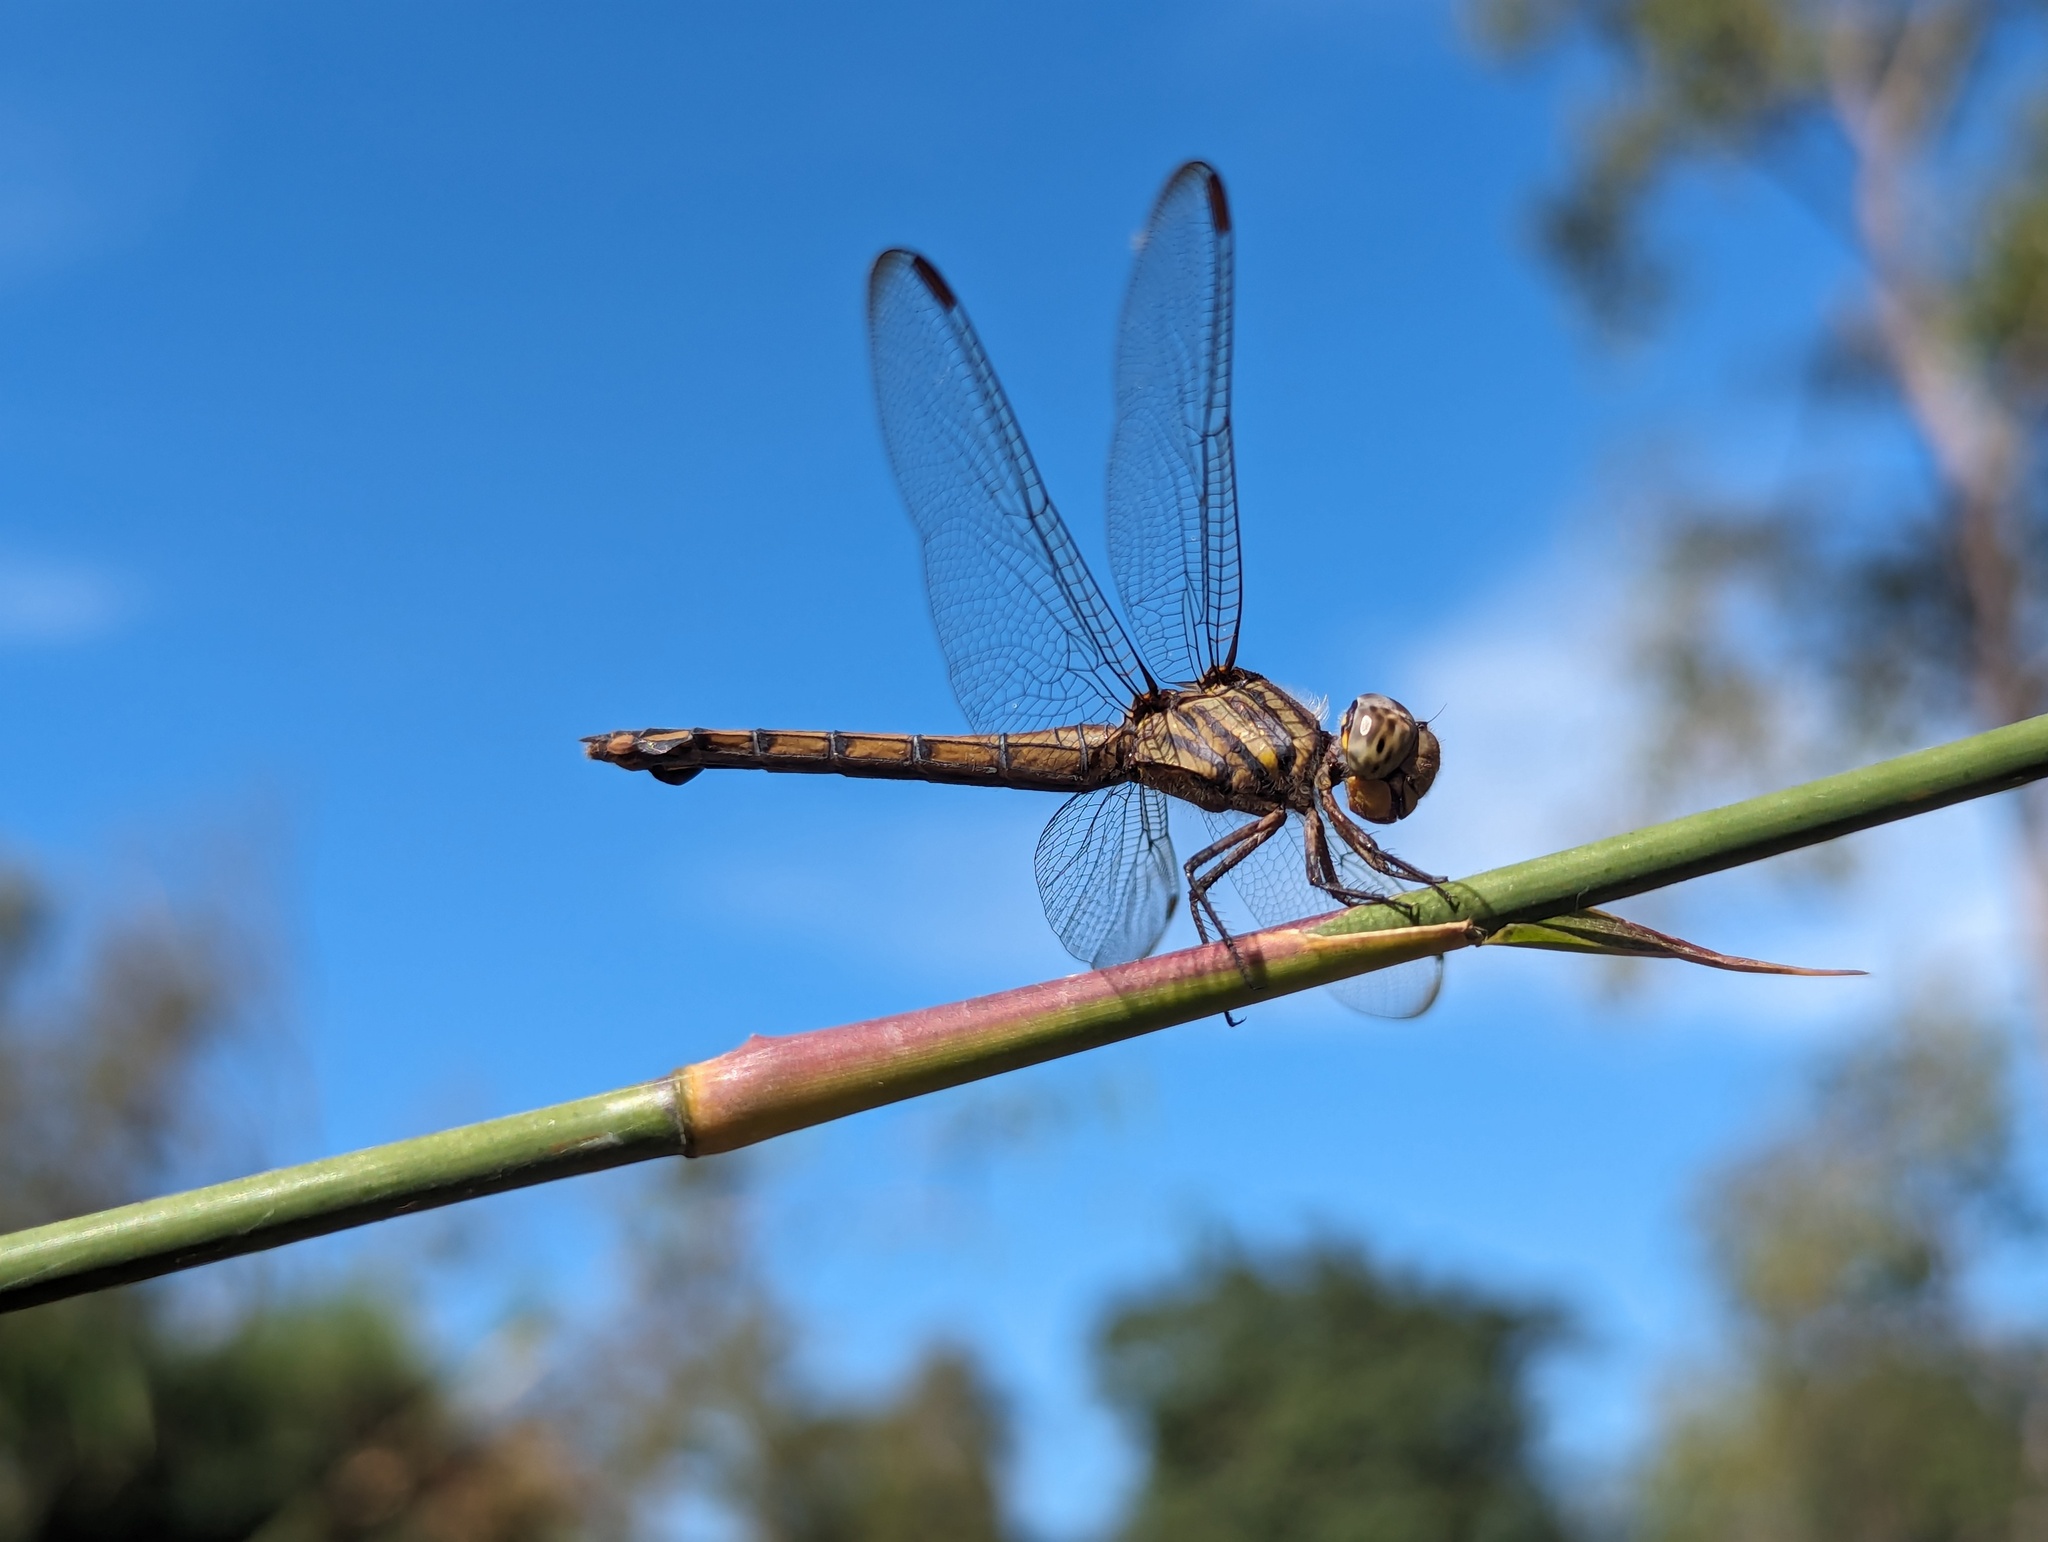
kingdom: Animalia
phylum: Arthropoda
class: Insecta
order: Odonata
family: Libellulidae
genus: Potamarcha
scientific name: Potamarcha congener
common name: Blue chaser
